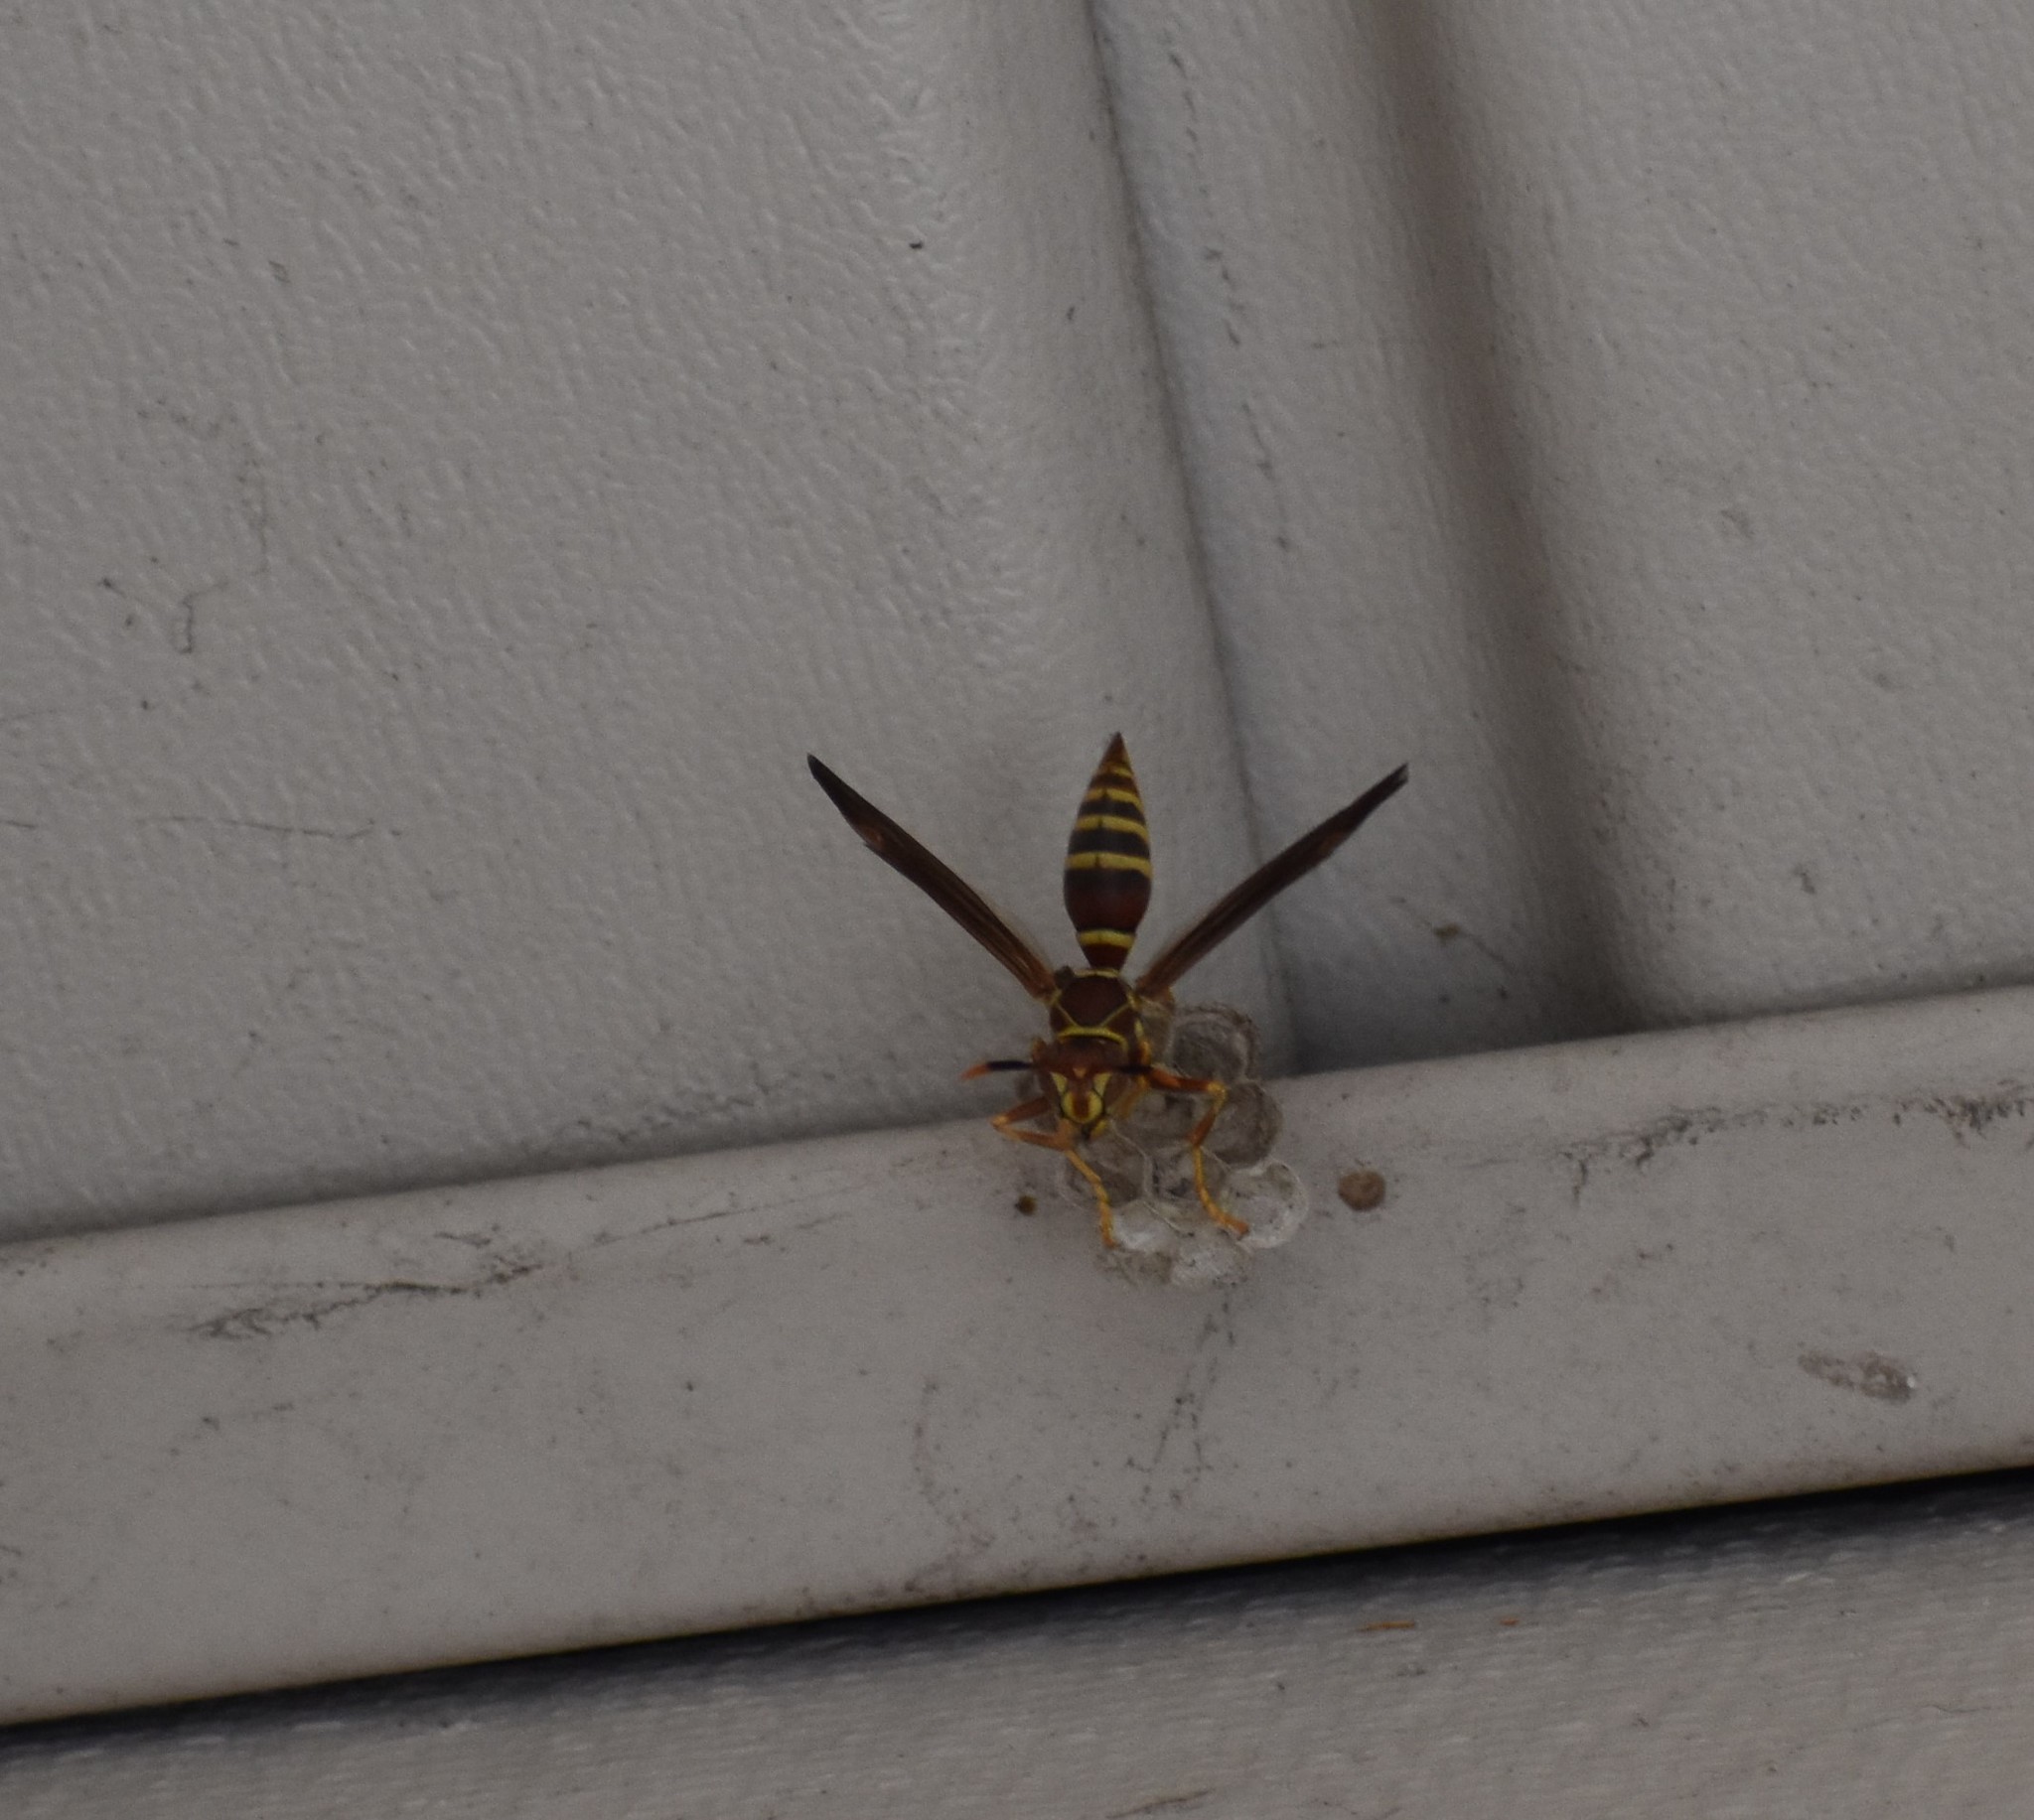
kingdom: Animalia
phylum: Arthropoda
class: Insecta
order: Hymenoptera
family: Eumenidae
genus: Polistes
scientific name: Polistes exclamans
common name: Paper wasp
